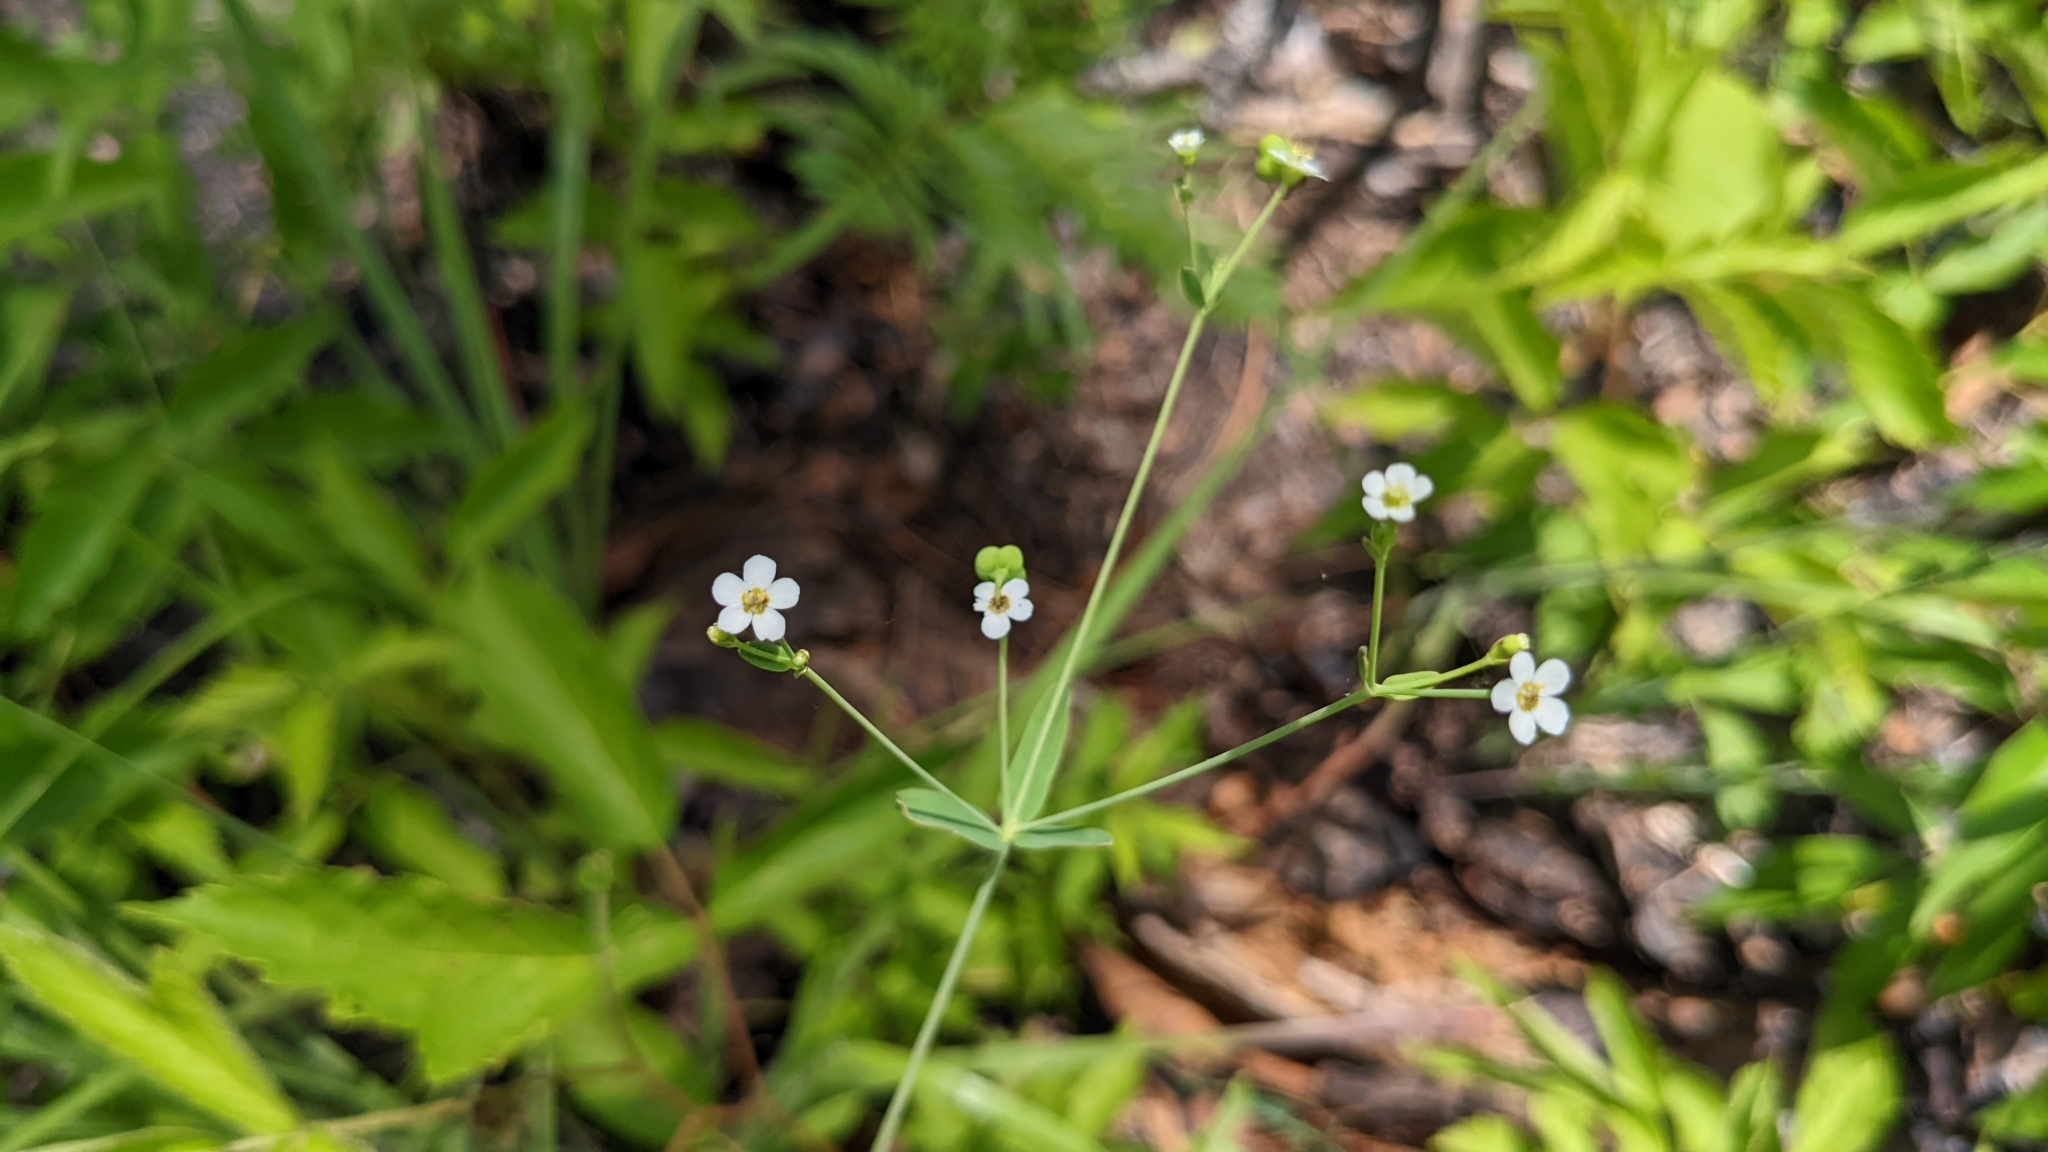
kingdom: Plantae
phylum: Tracheophyta
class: Magnoliopsida
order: Malpighiales
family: Euphorbiaceae
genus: Euphorbia
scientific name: Euphorbia corollata
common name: Flowering spurge
